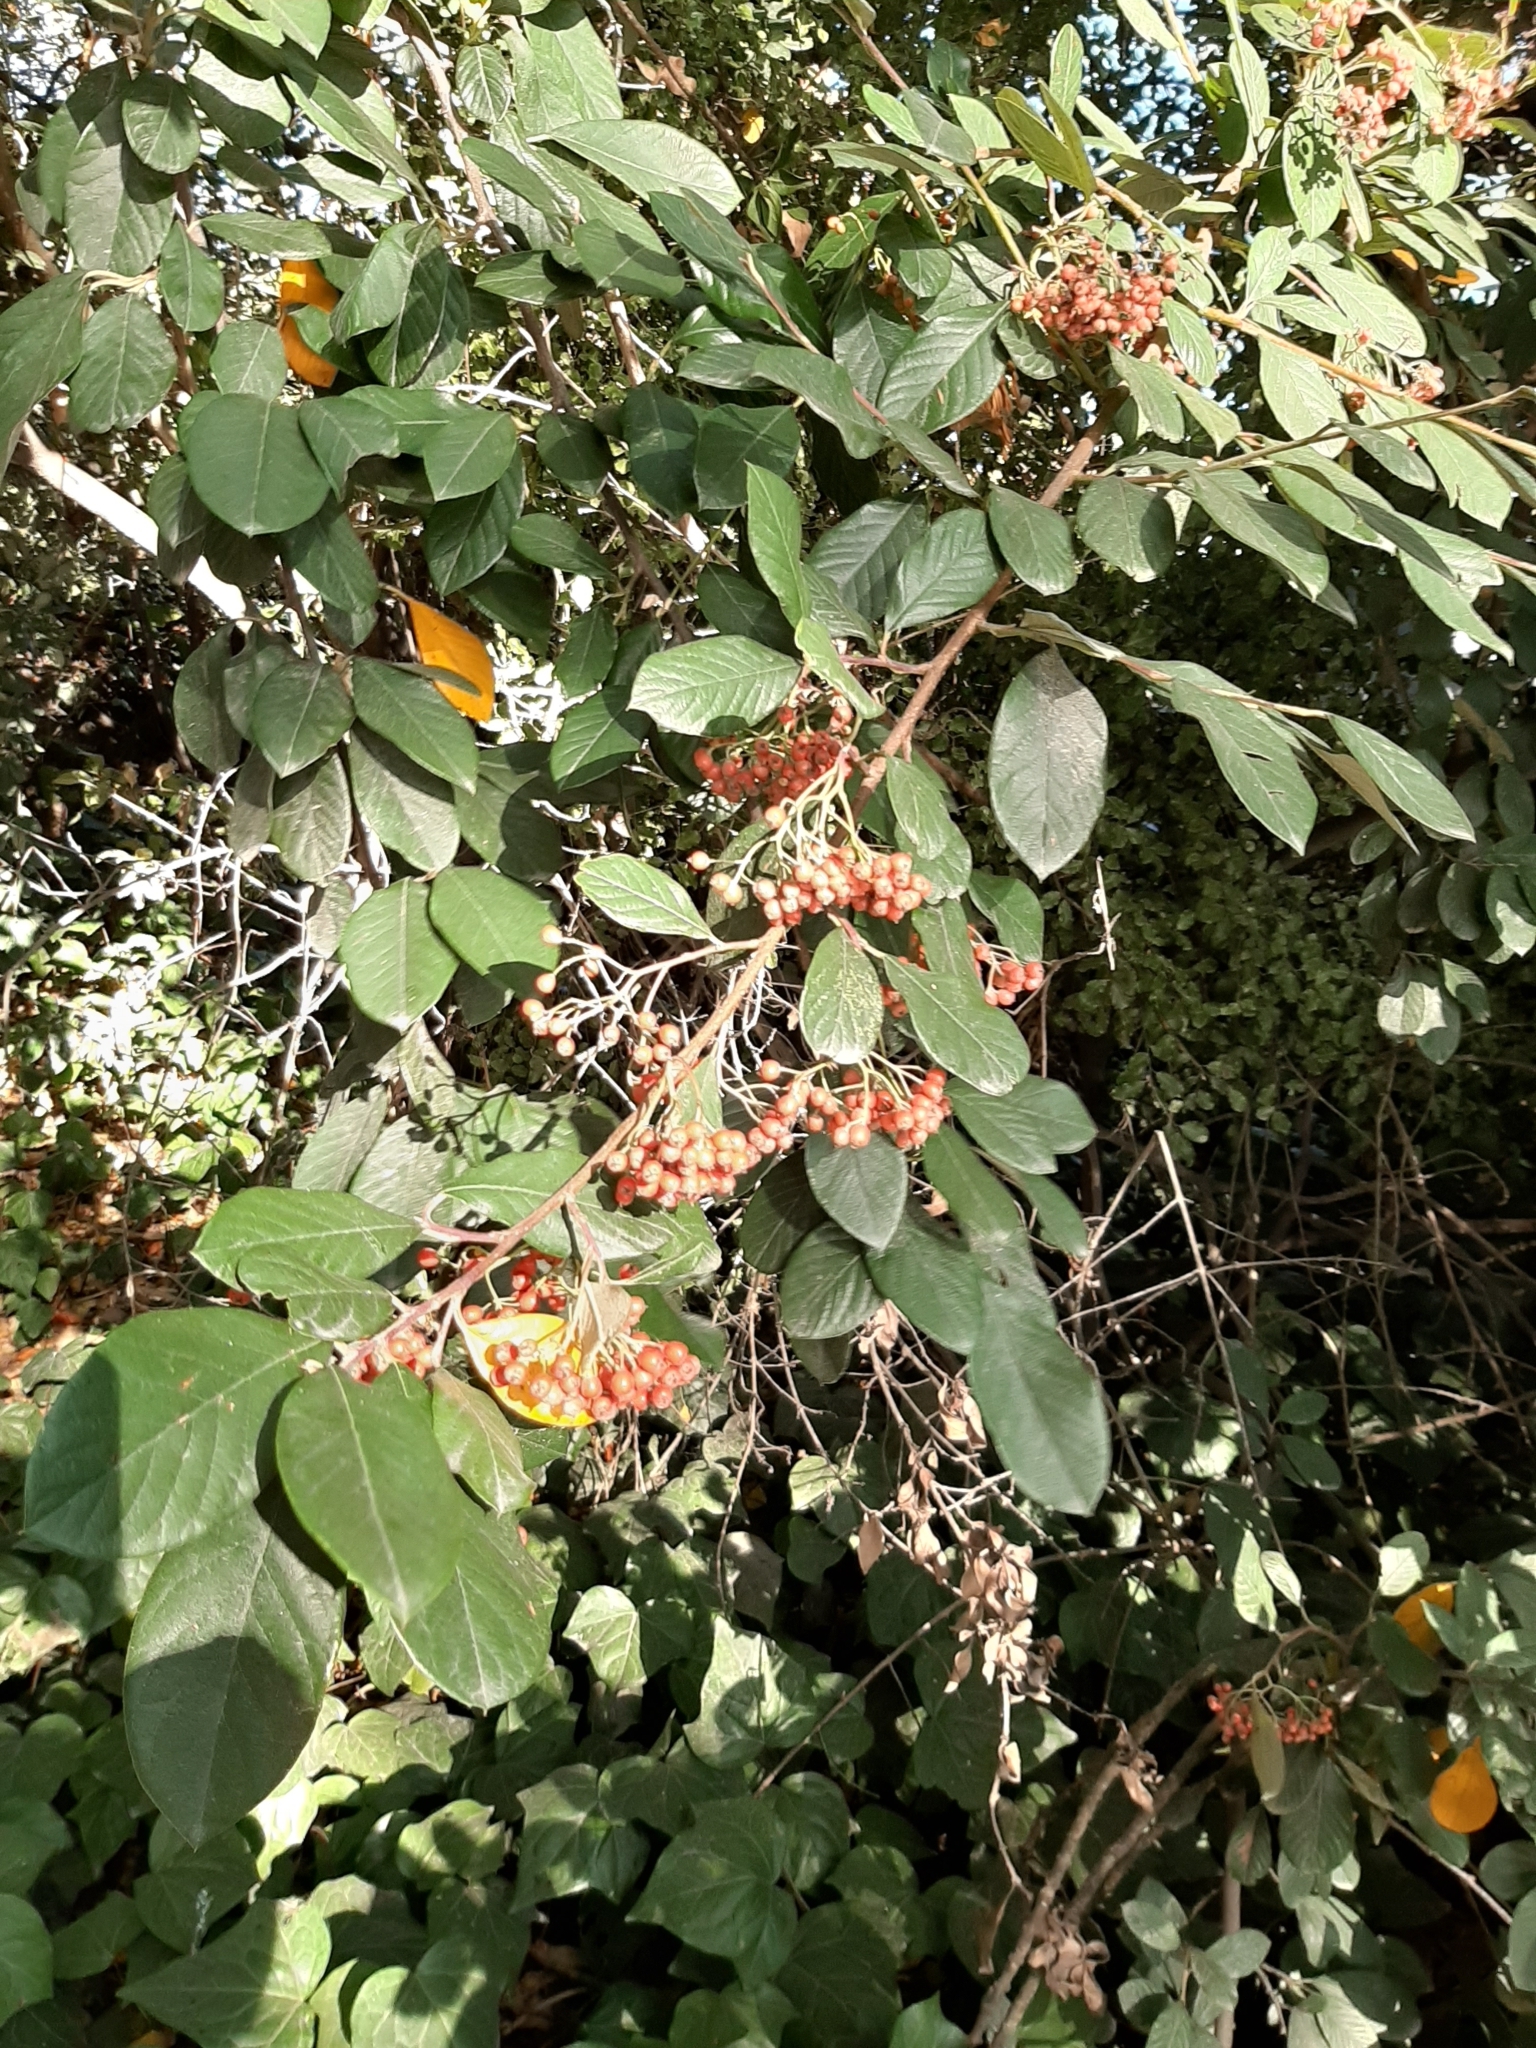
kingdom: Plantae
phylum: Tracheophyta
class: Magnoliopsida
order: Rosales
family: Rosaceae
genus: Cotoneaster
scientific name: Cotoneaster glaucophyllus
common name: Glaucous cotoneaster
